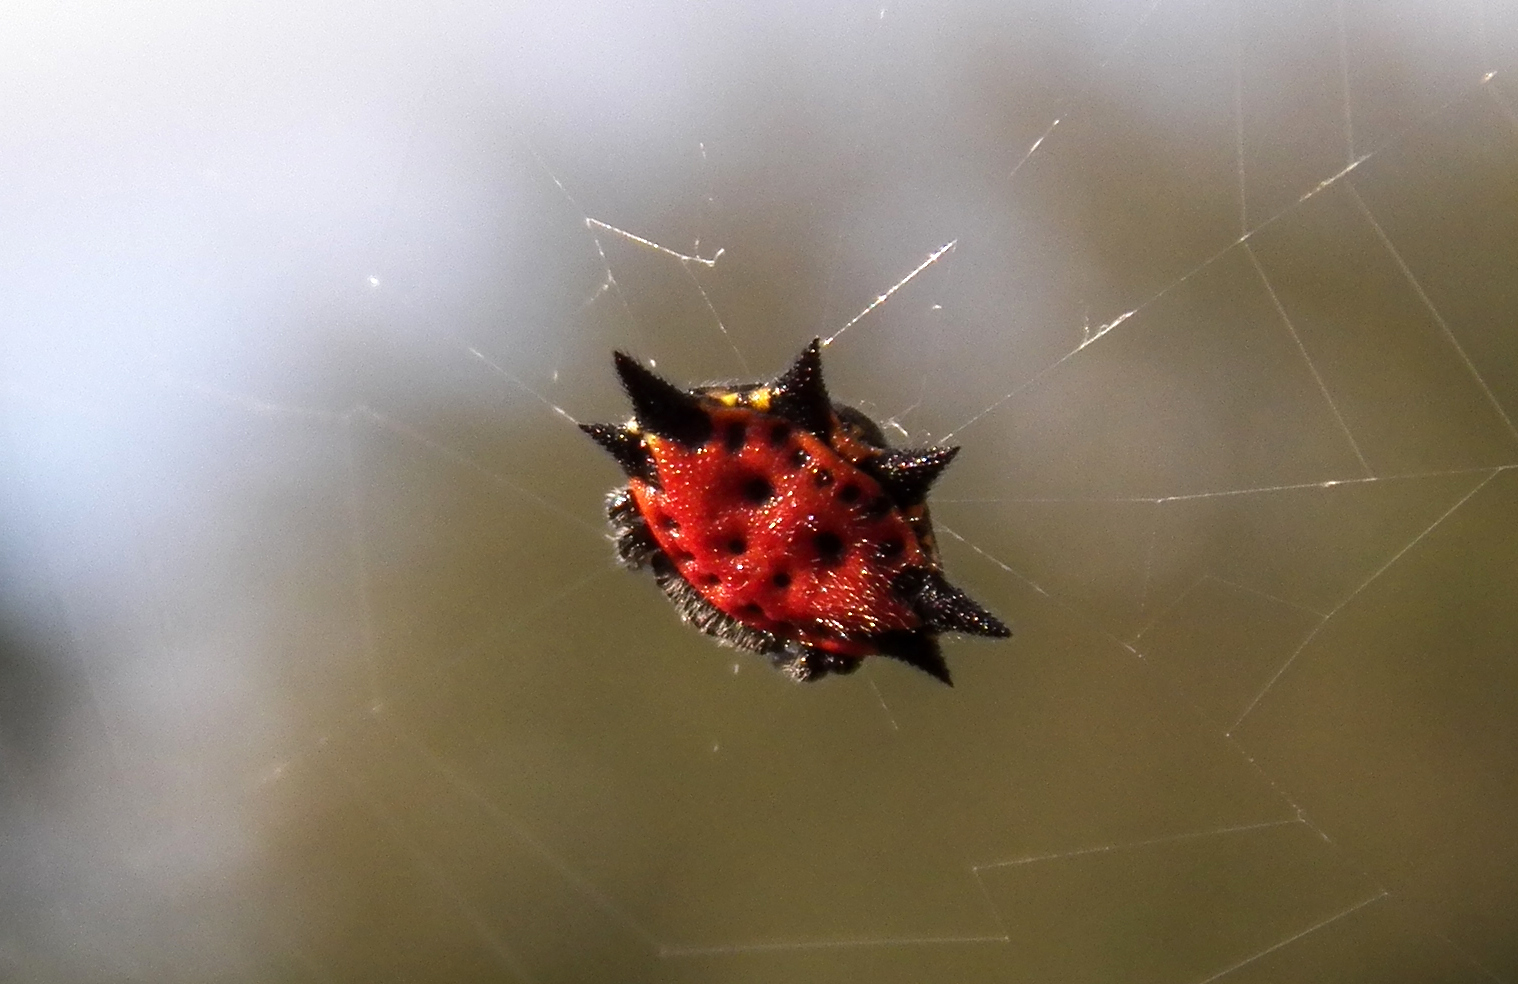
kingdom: Animalia
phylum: Arthropoda
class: Arachnida
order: Araneae
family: Araneidae
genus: Gasteracantha
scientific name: Gasteracantha cancriformis
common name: Orb weavers
